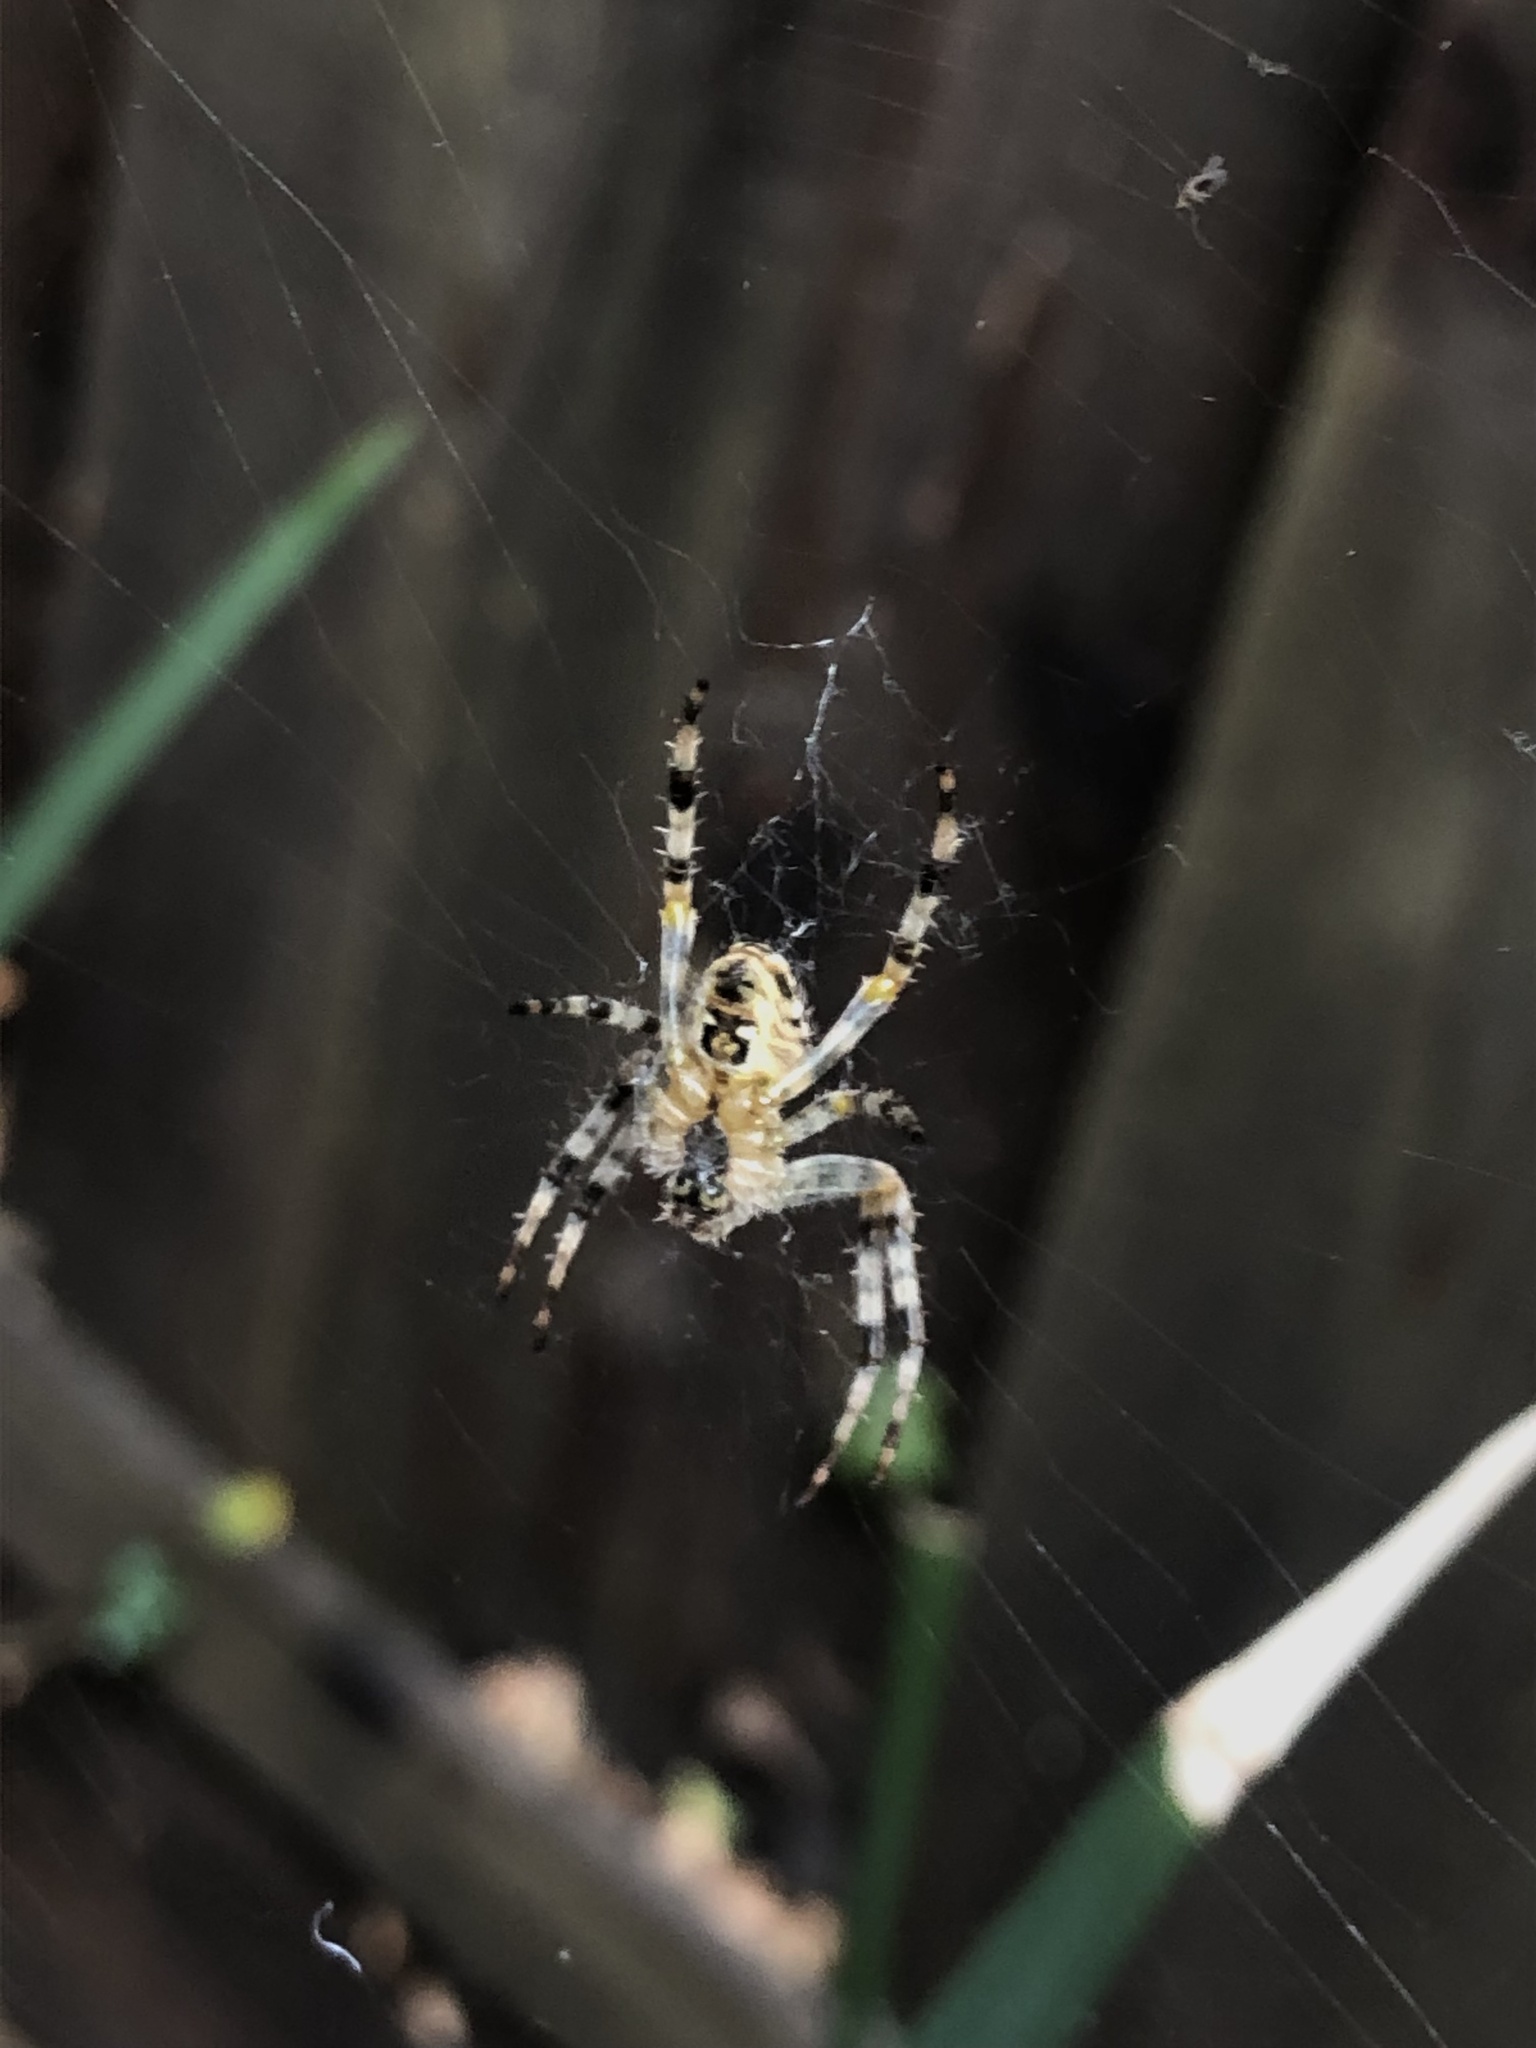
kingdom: Animalia
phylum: Arthropoda
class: Arachnida
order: Araneae
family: Araneidae
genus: Araneus
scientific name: Araneus diadematus
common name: Cross orbweaver
